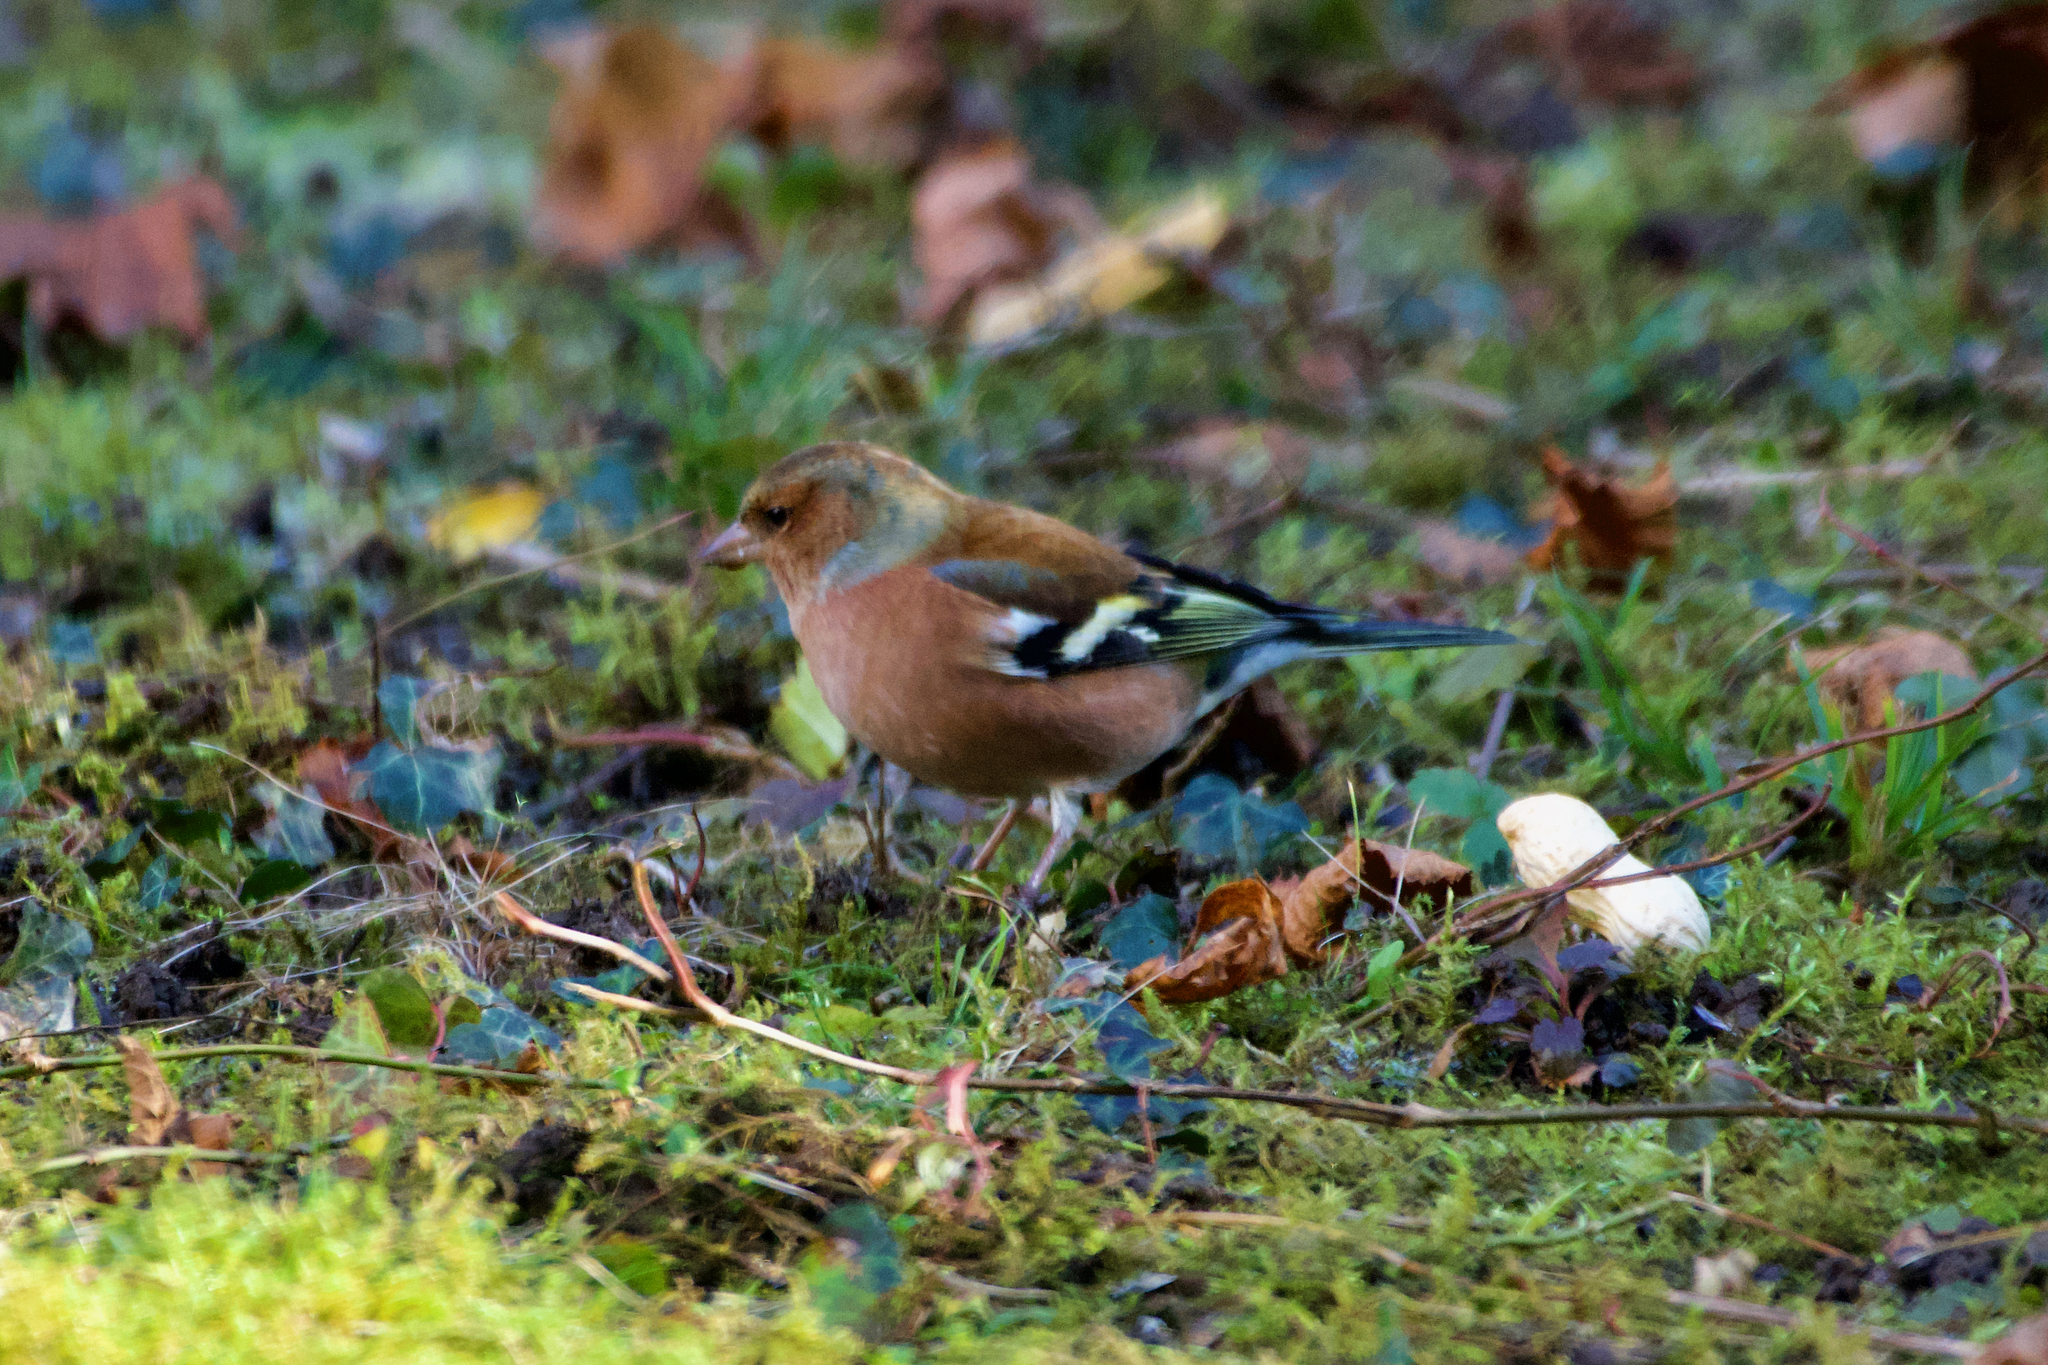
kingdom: Animalia
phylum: Chordata
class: Aves
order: Passeriformes
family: Fringillidae
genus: Fringilla
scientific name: Fringilla coelebs
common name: Common chaffinch
